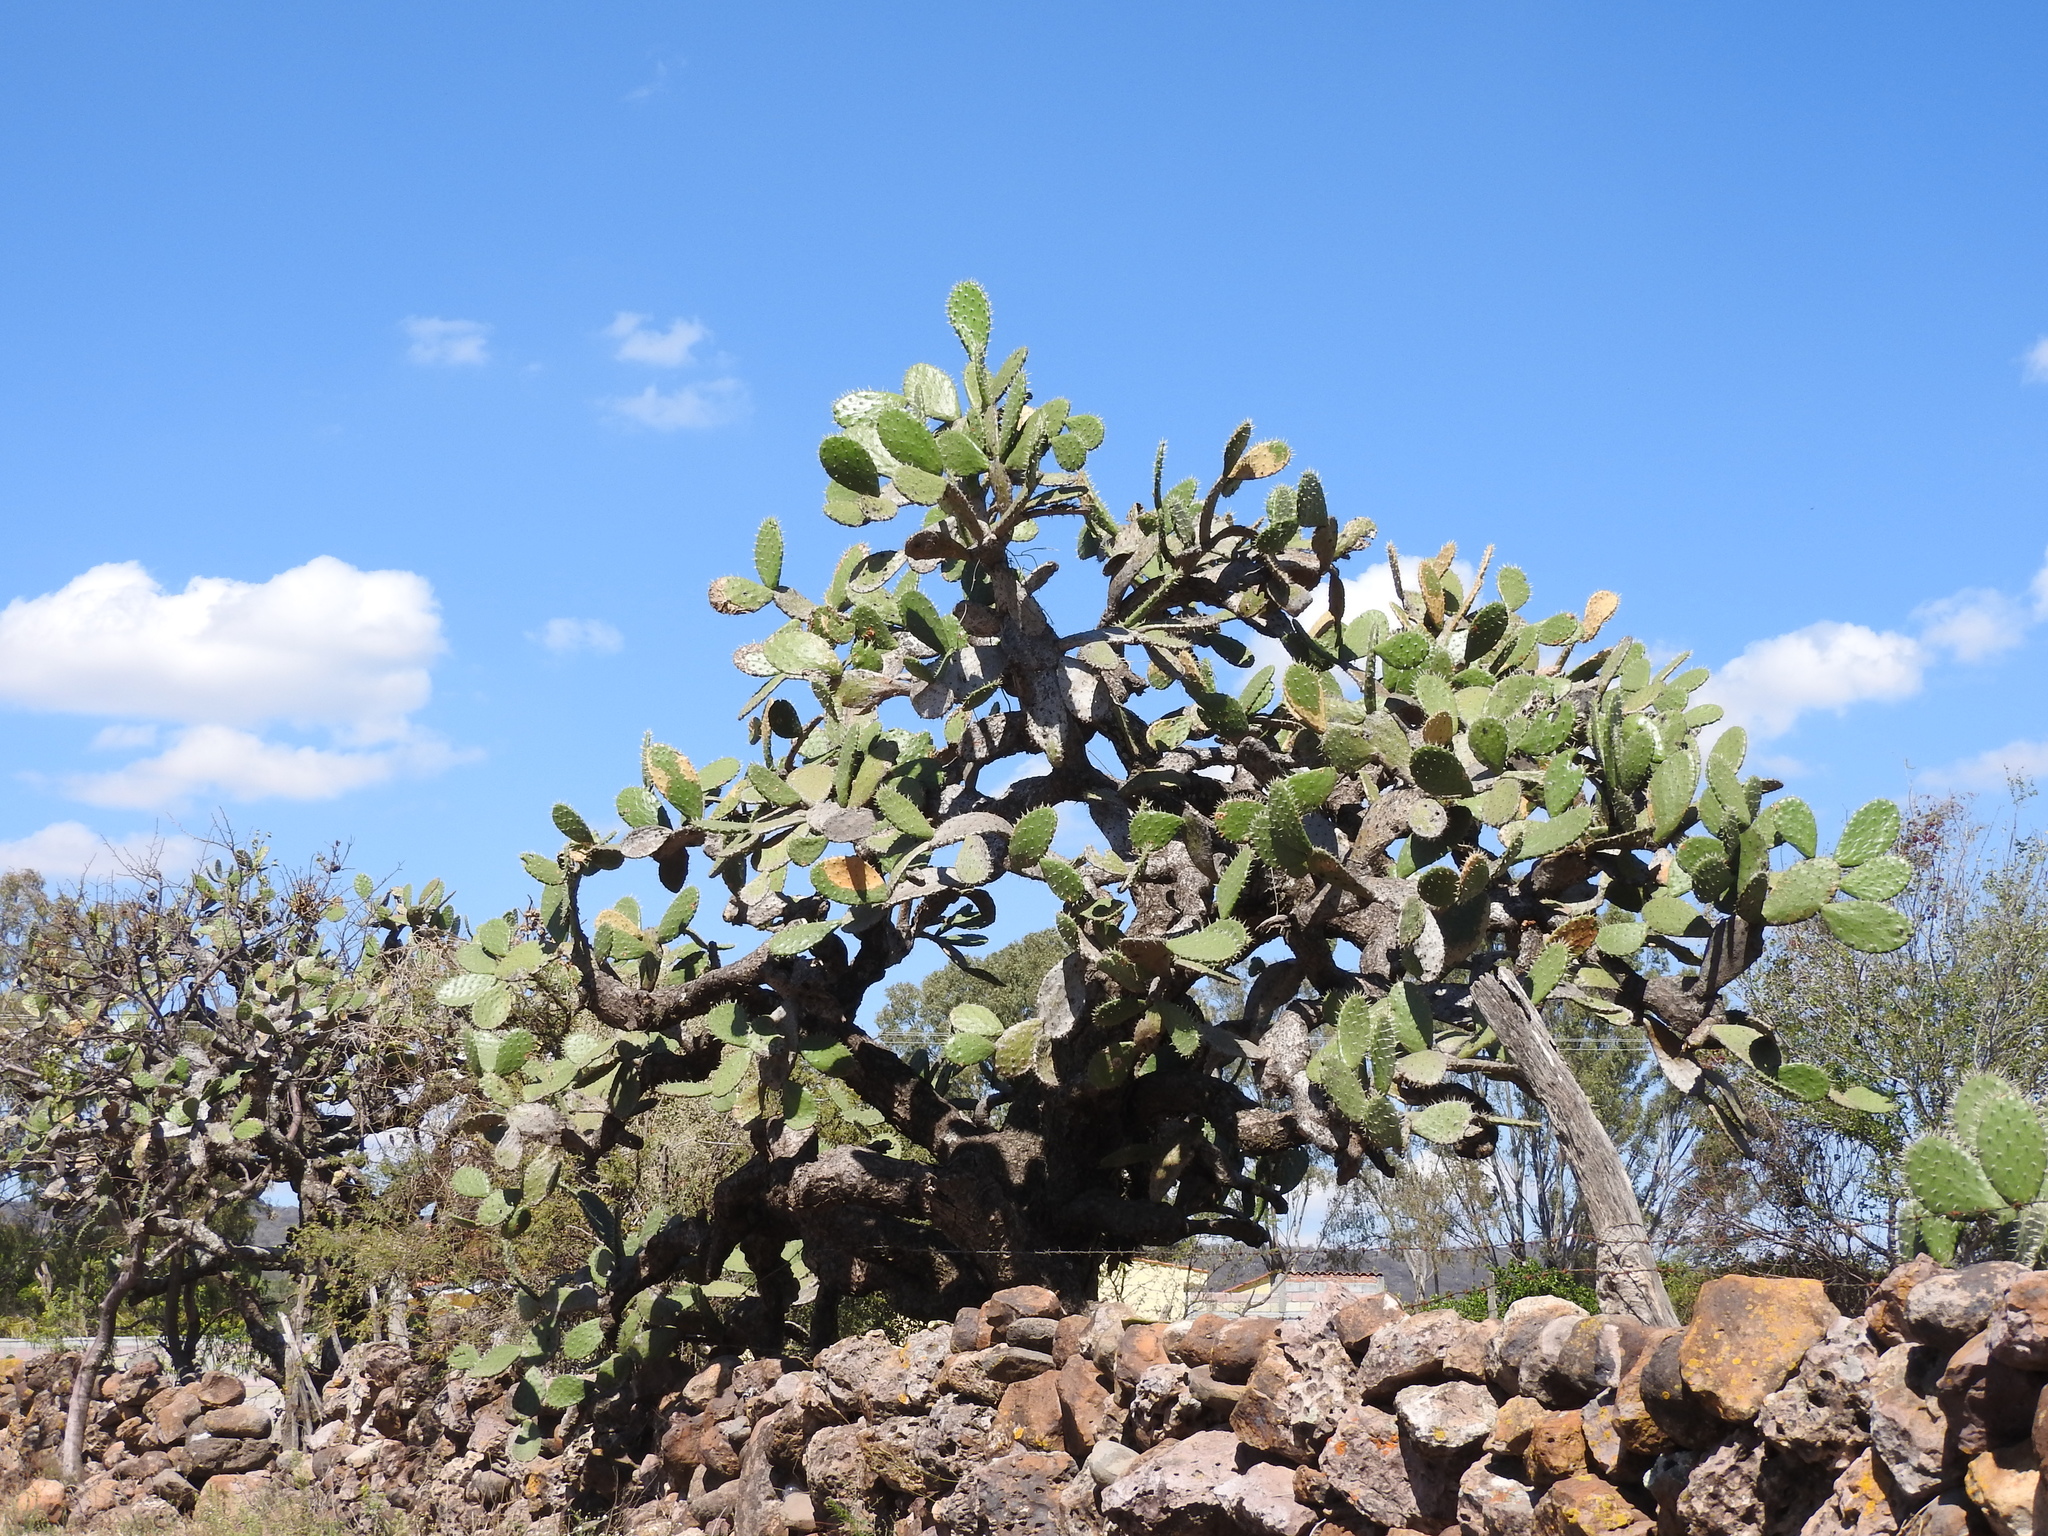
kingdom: Plantae
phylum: Tracheophyta
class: Magnoliopsida
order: Caryophyllales
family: Cactaceae
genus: Opuntia
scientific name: Opuntia jaliscana
